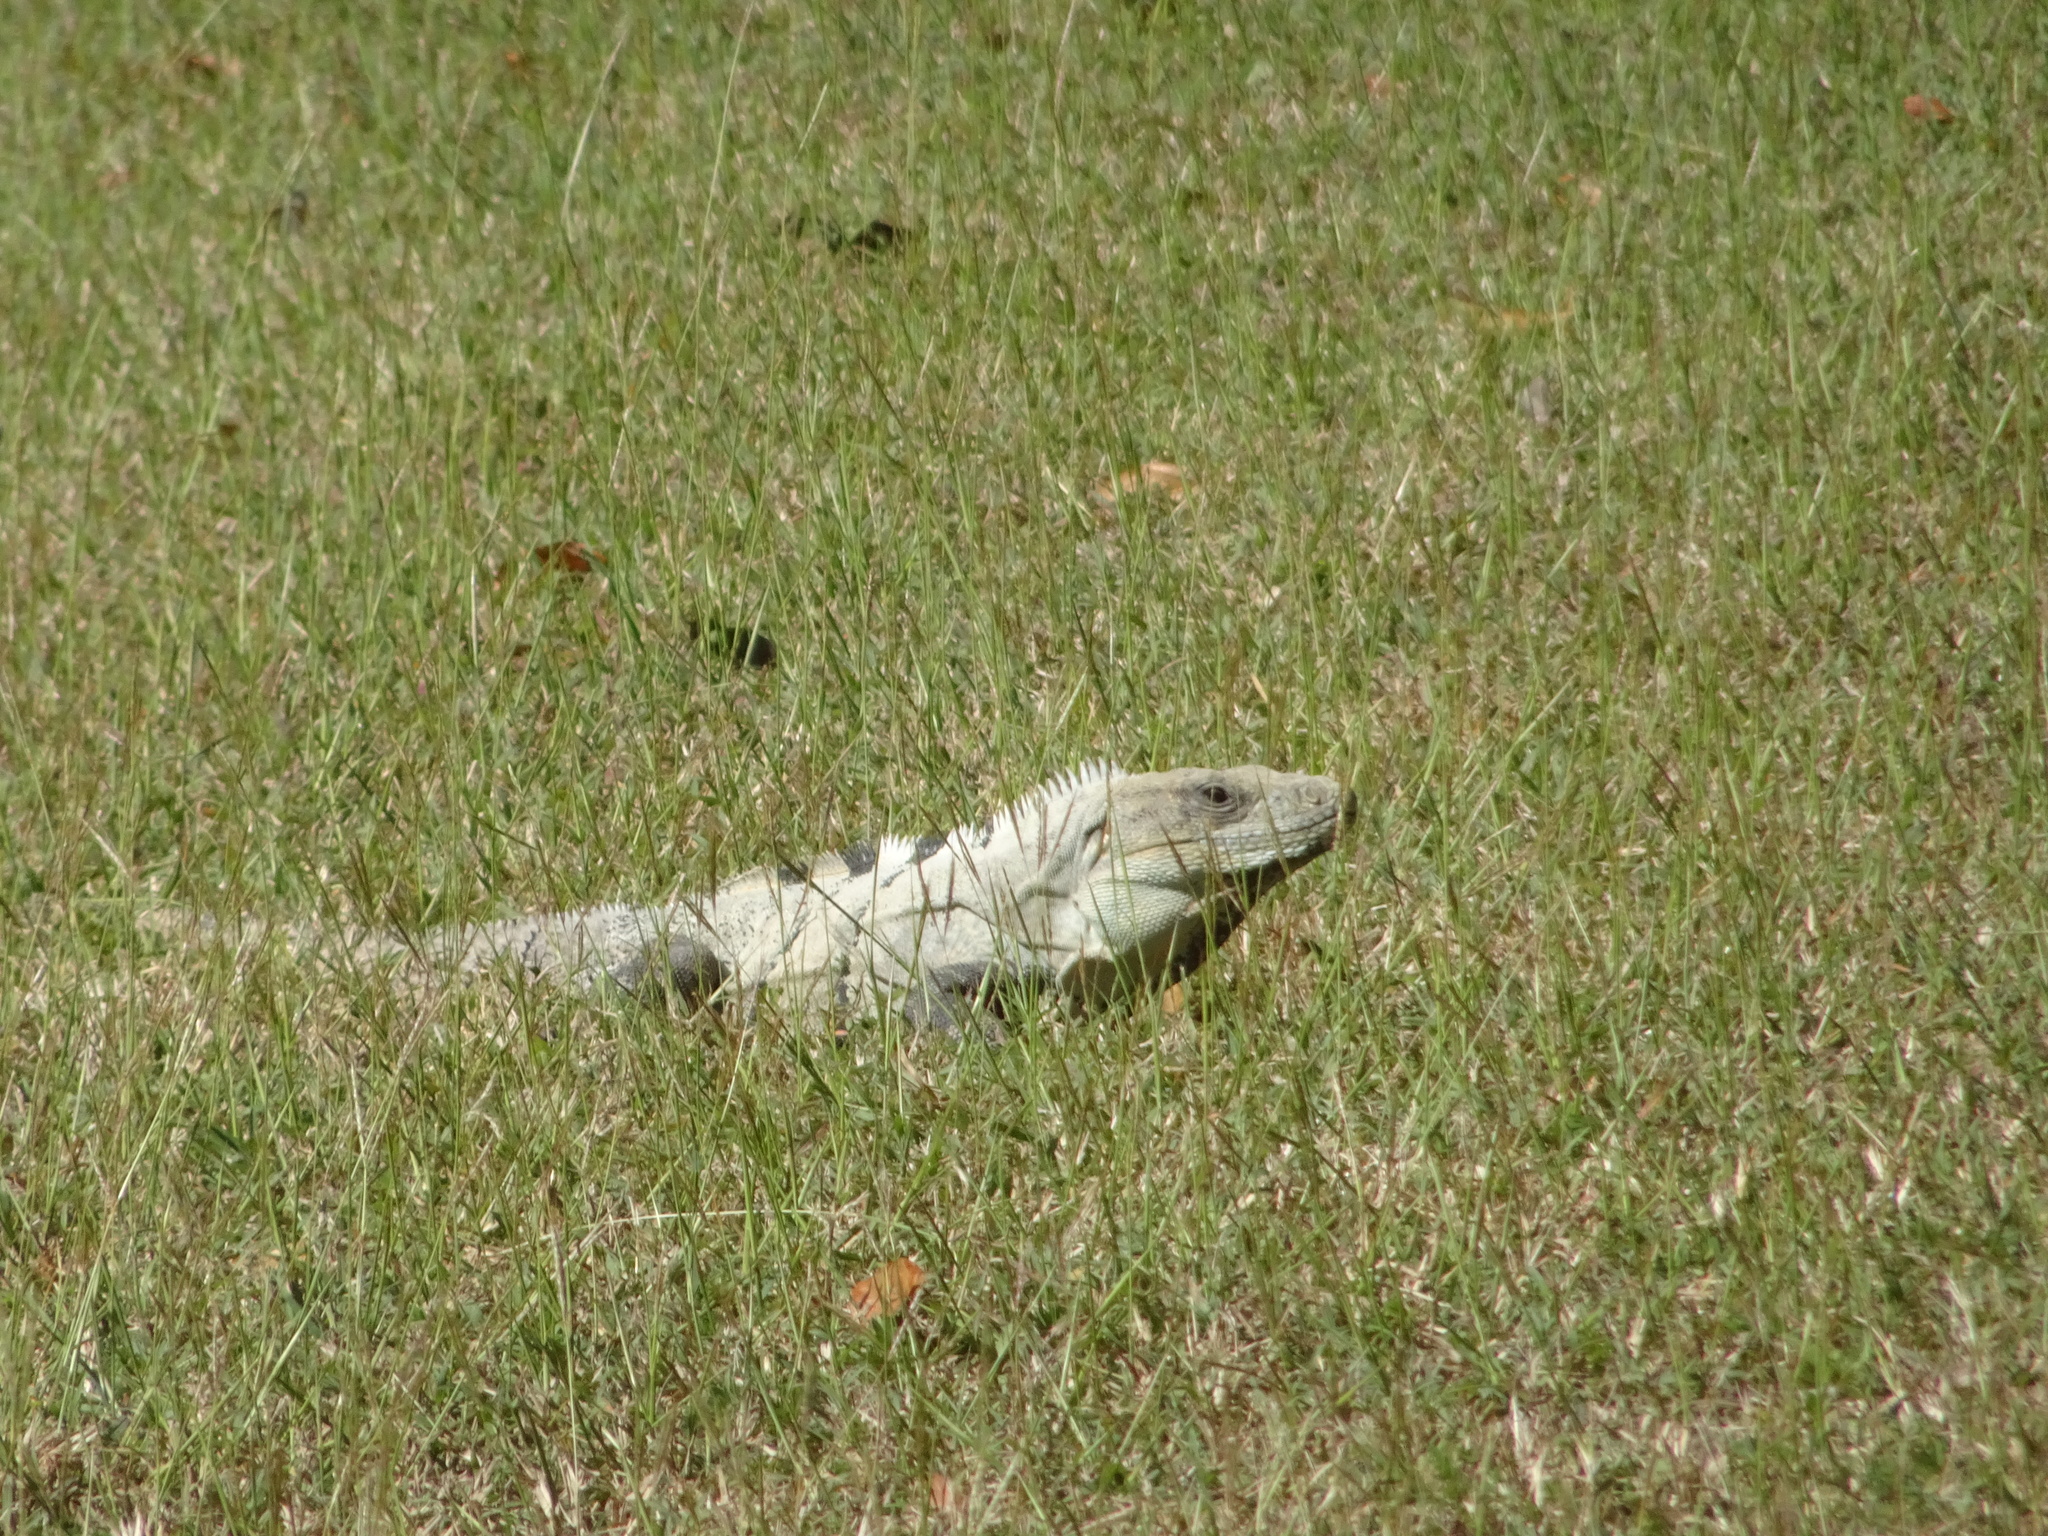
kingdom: Animalia
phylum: Chordata
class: Squamata
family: Iguanidae
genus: Ctenosaura
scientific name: Ctenosaura similis
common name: Black spiny-tailed iguana
